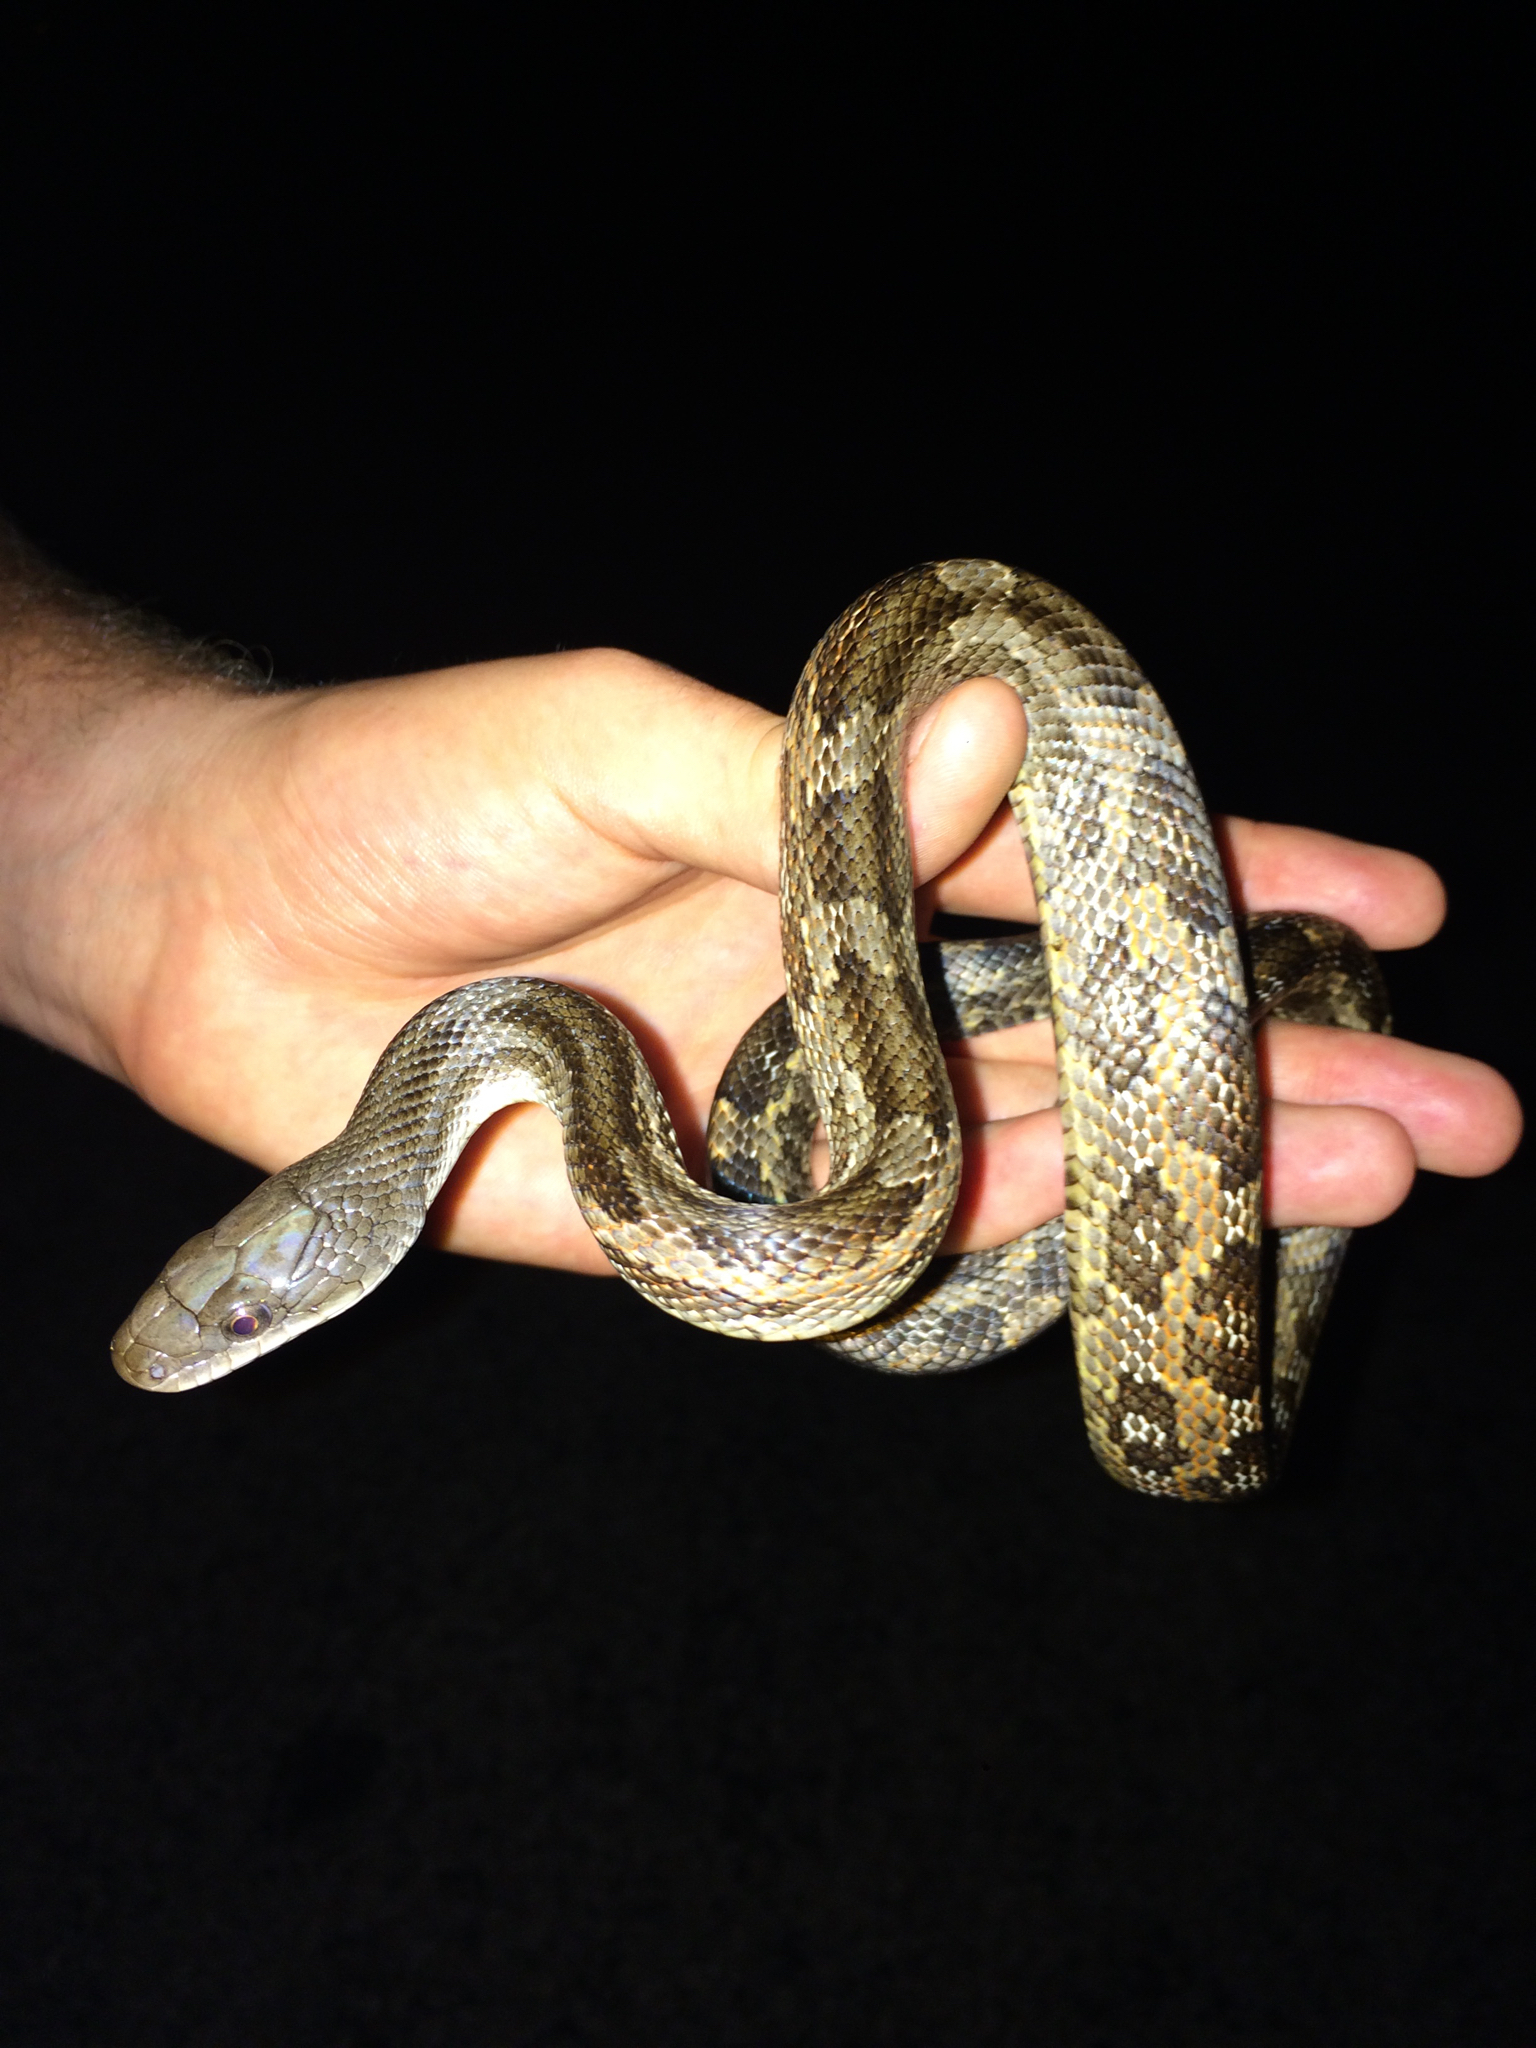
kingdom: Animalia
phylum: Chordata
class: Squamata
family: Colubridae
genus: Pantherophis
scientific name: Pantherophis obsoletus
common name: Black rat snake
